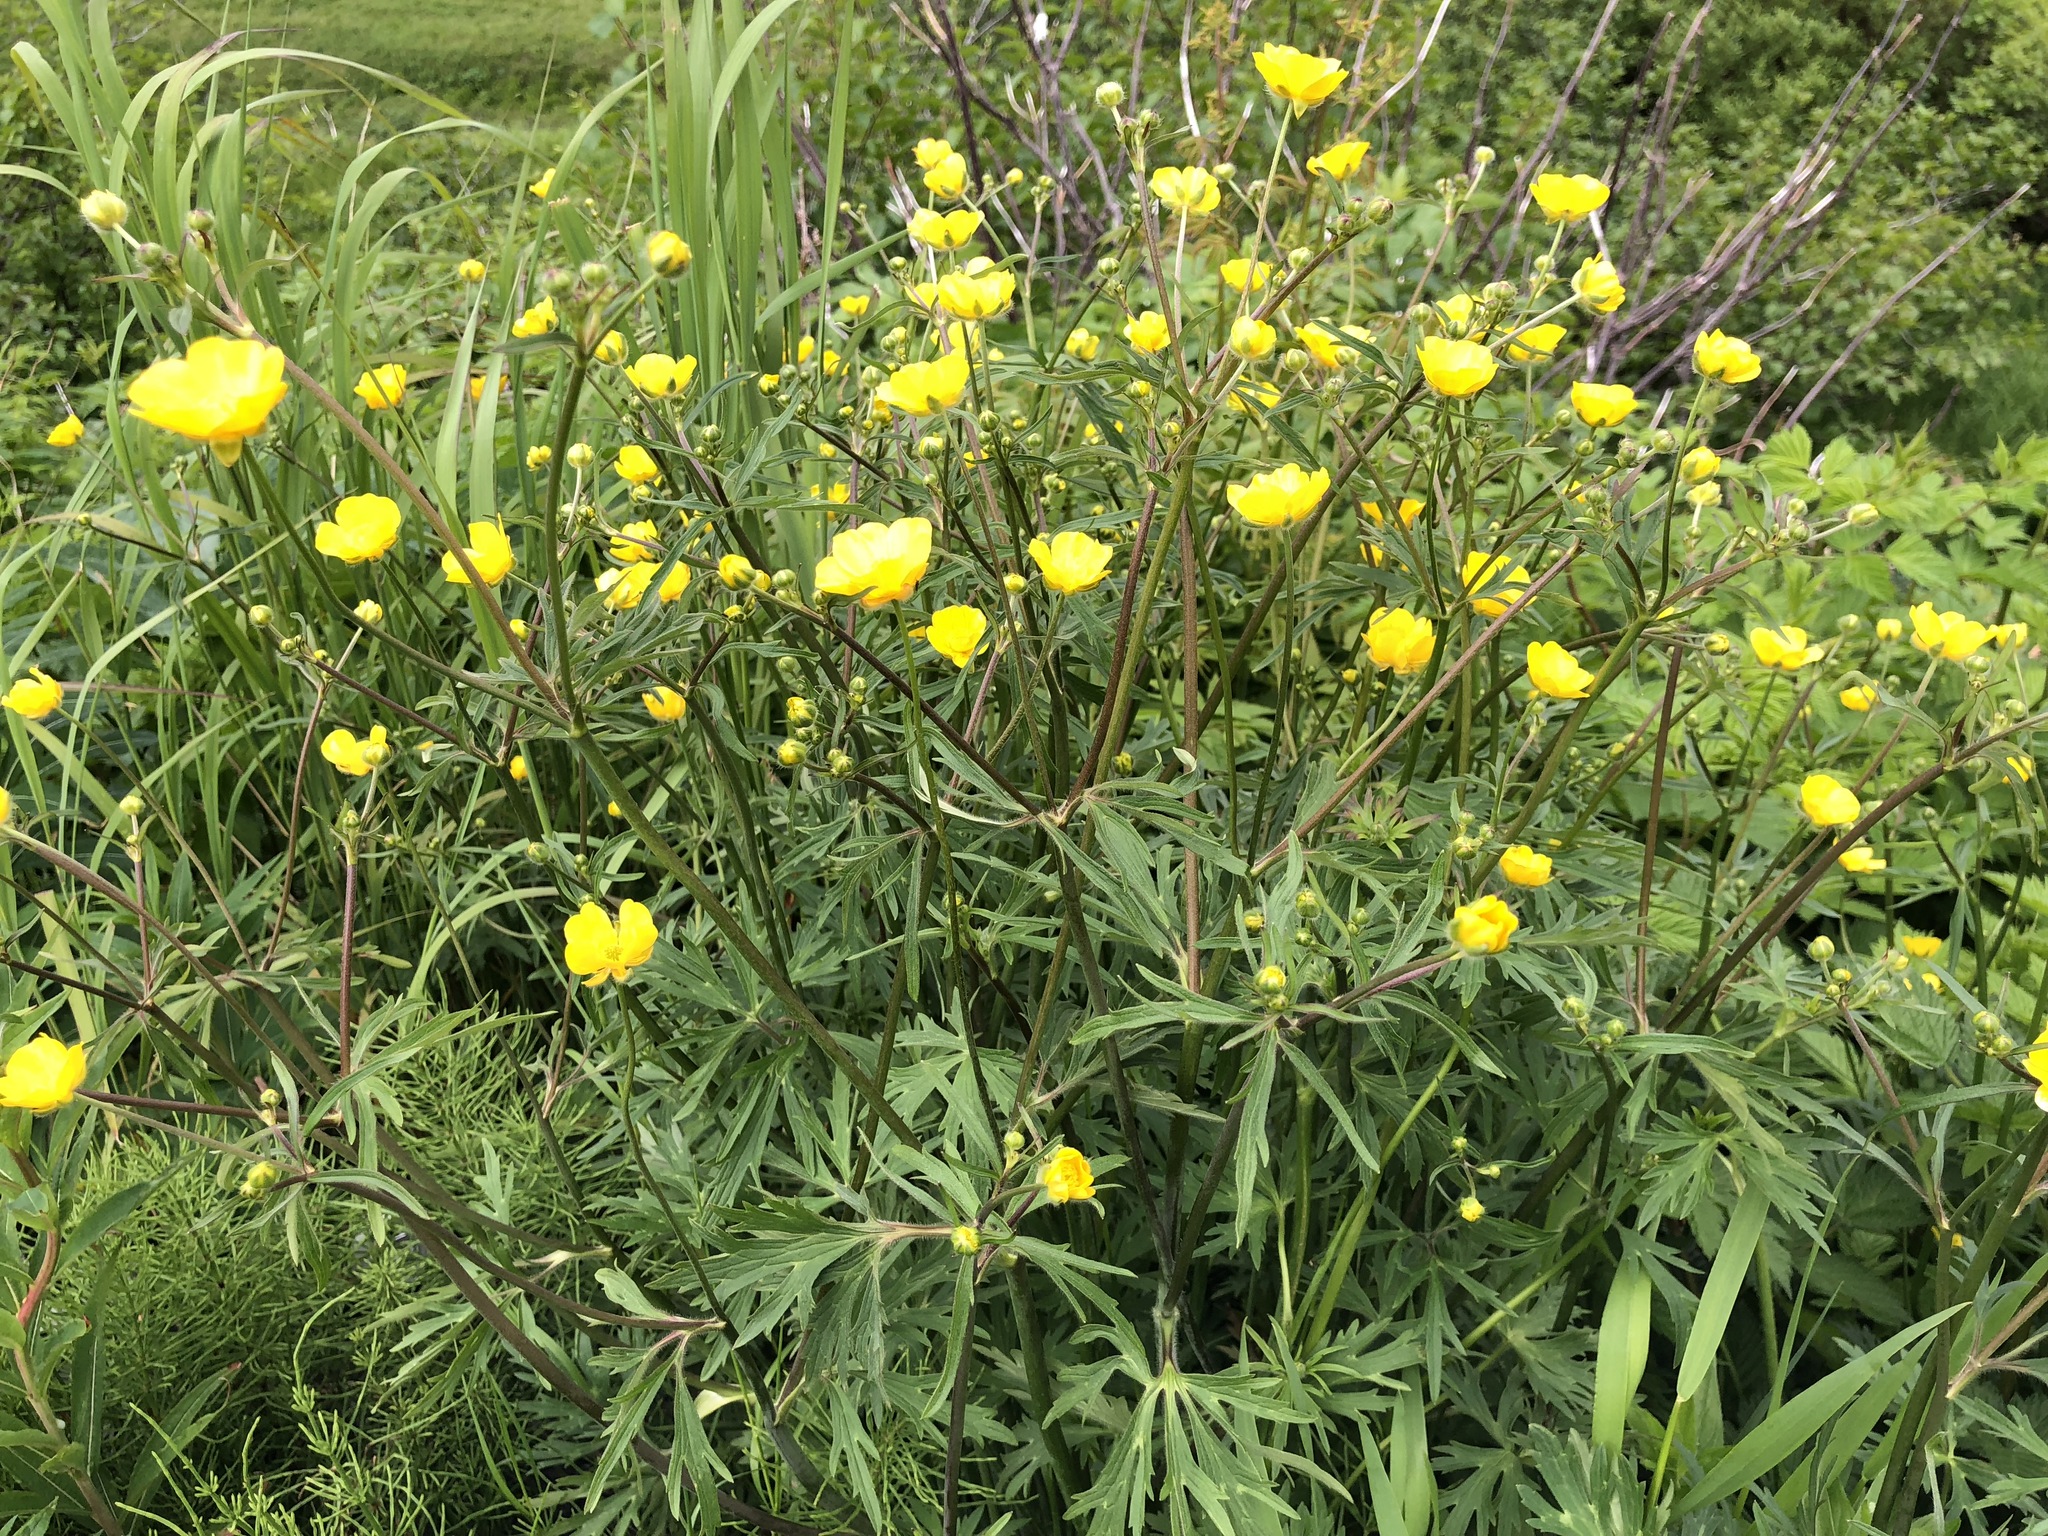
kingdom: Plantae
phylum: Tracheophyta
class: Magnoliopsida
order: Ranunculales
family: Ranunculaceae
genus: Ranunculus
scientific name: Ranunculus acris
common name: Meadow buttercup
